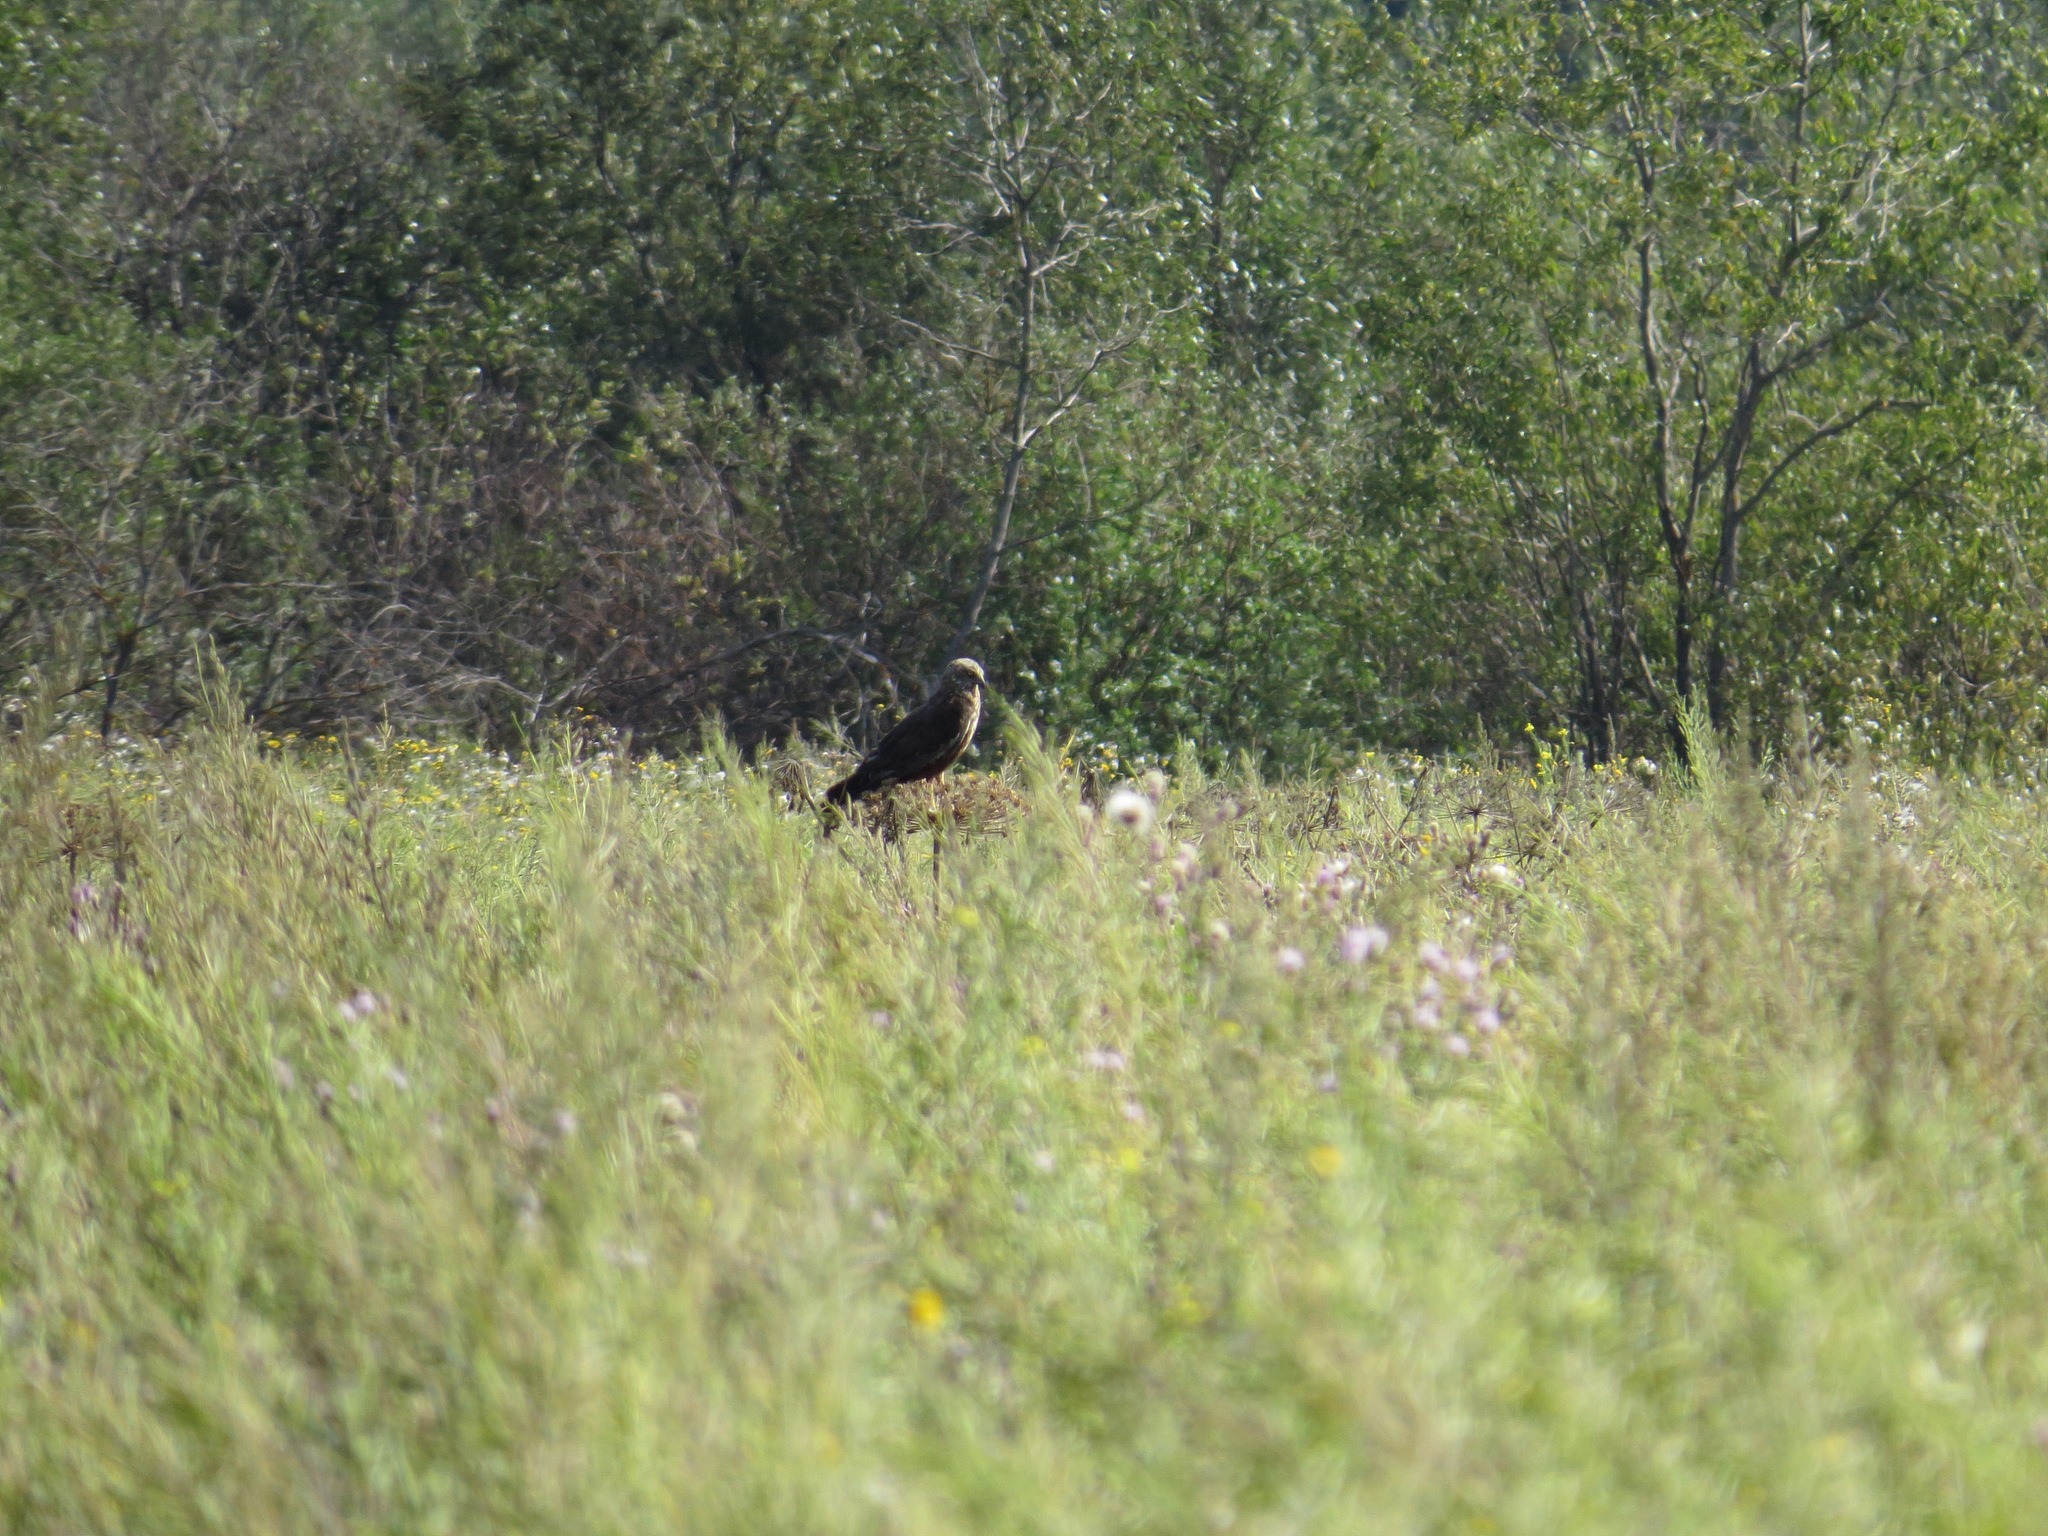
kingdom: Animalia
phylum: Chordata
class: Aves
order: Accipitriformes
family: Accipitridae
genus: Circus
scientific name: Circus aeruginosus
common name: Western marsh harrier
